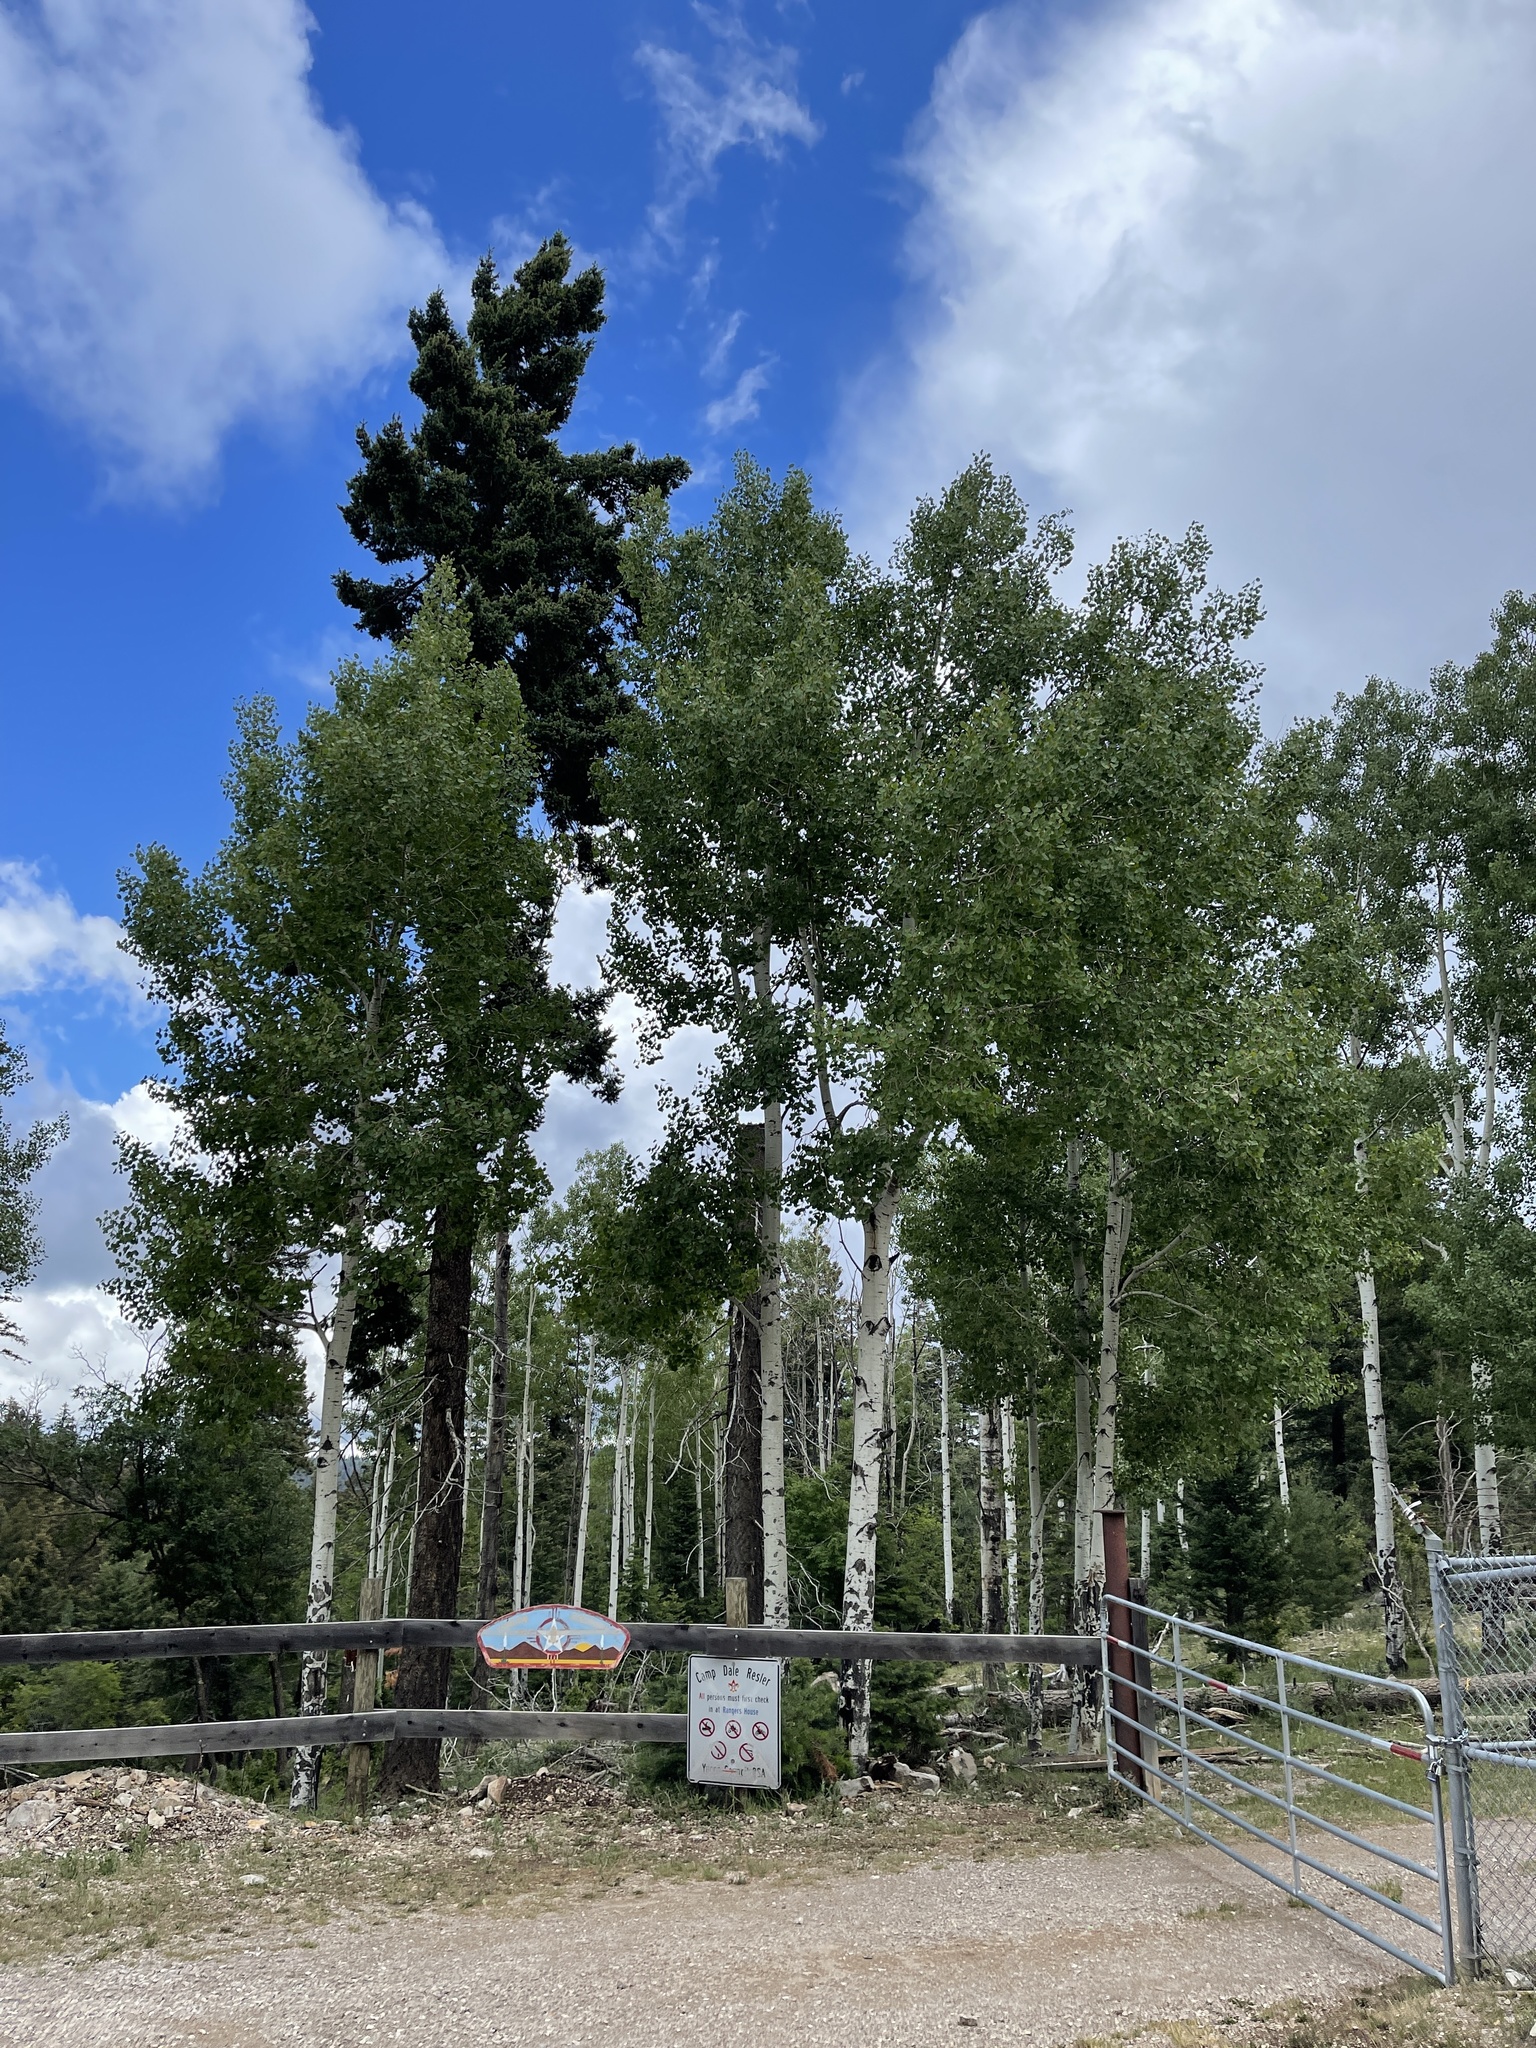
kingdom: Plantae
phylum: Tracheophyta
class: Magnoliopsida
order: Malpighiales
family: Salicaceae
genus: Populus
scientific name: Populus tremuloides
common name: Quaking aspen
